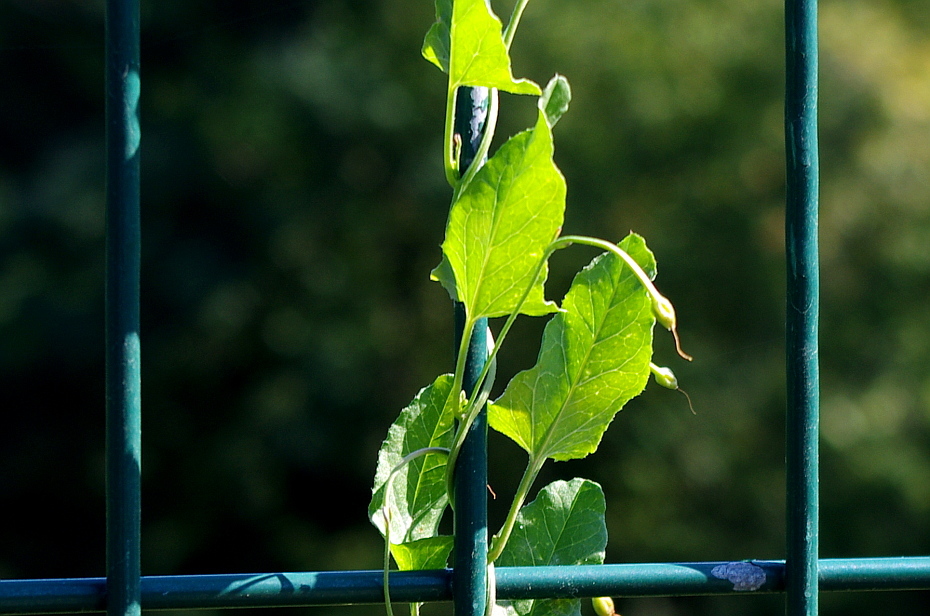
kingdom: Plantae
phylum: Tracheophyta
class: Magnoliopsida
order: Solanales
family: Convolvulaceae
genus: Convolvulus
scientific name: Convolvulus arvensis
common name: Field bindweed
